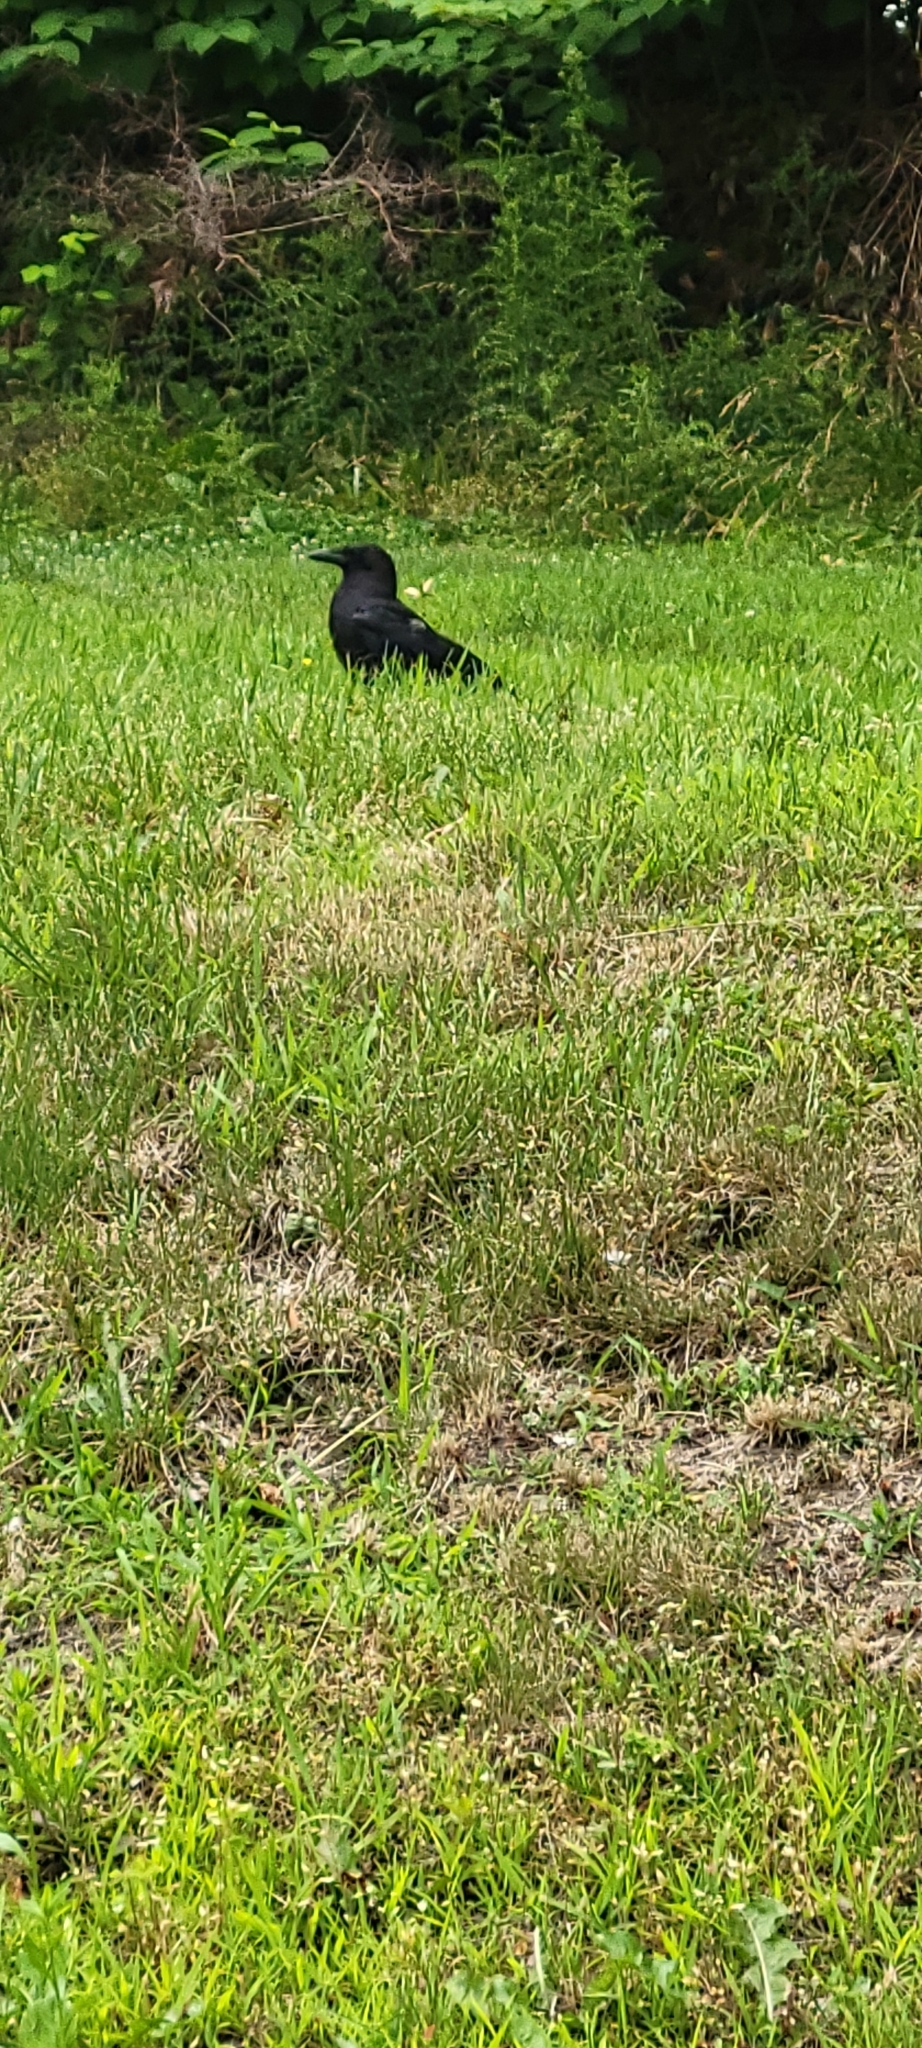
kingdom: Animalia
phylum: Chordata
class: Aves
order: Passeriformes
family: Corvidae
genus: Corvus
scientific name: Corvus brachyrhynchos
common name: American crow
